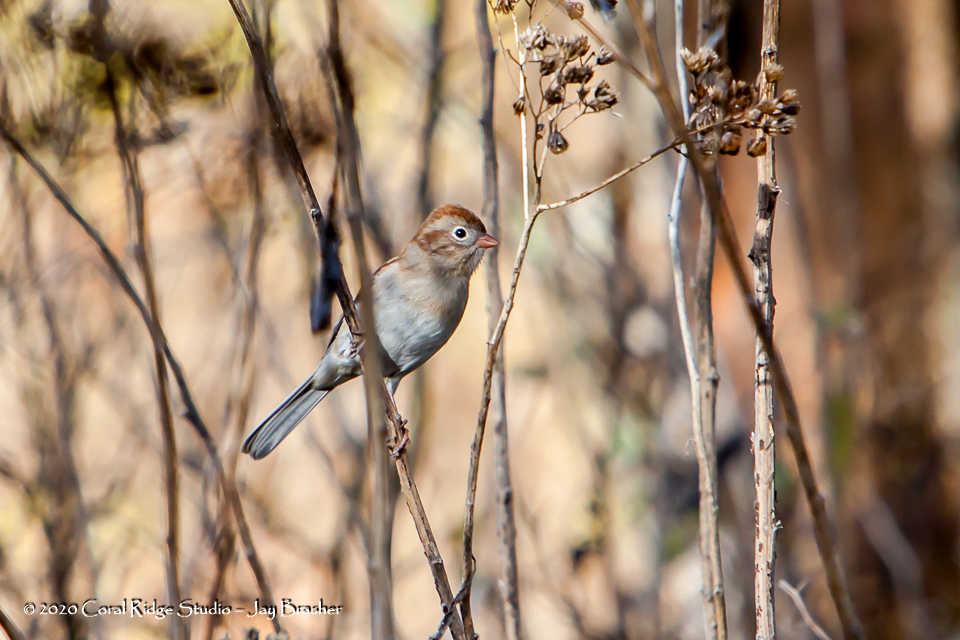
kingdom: Animalia
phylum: Chordata
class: Aves
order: Passeriformes
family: Passerellidae
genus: Spizella
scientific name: Spizella pusilla
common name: Field sparrow
